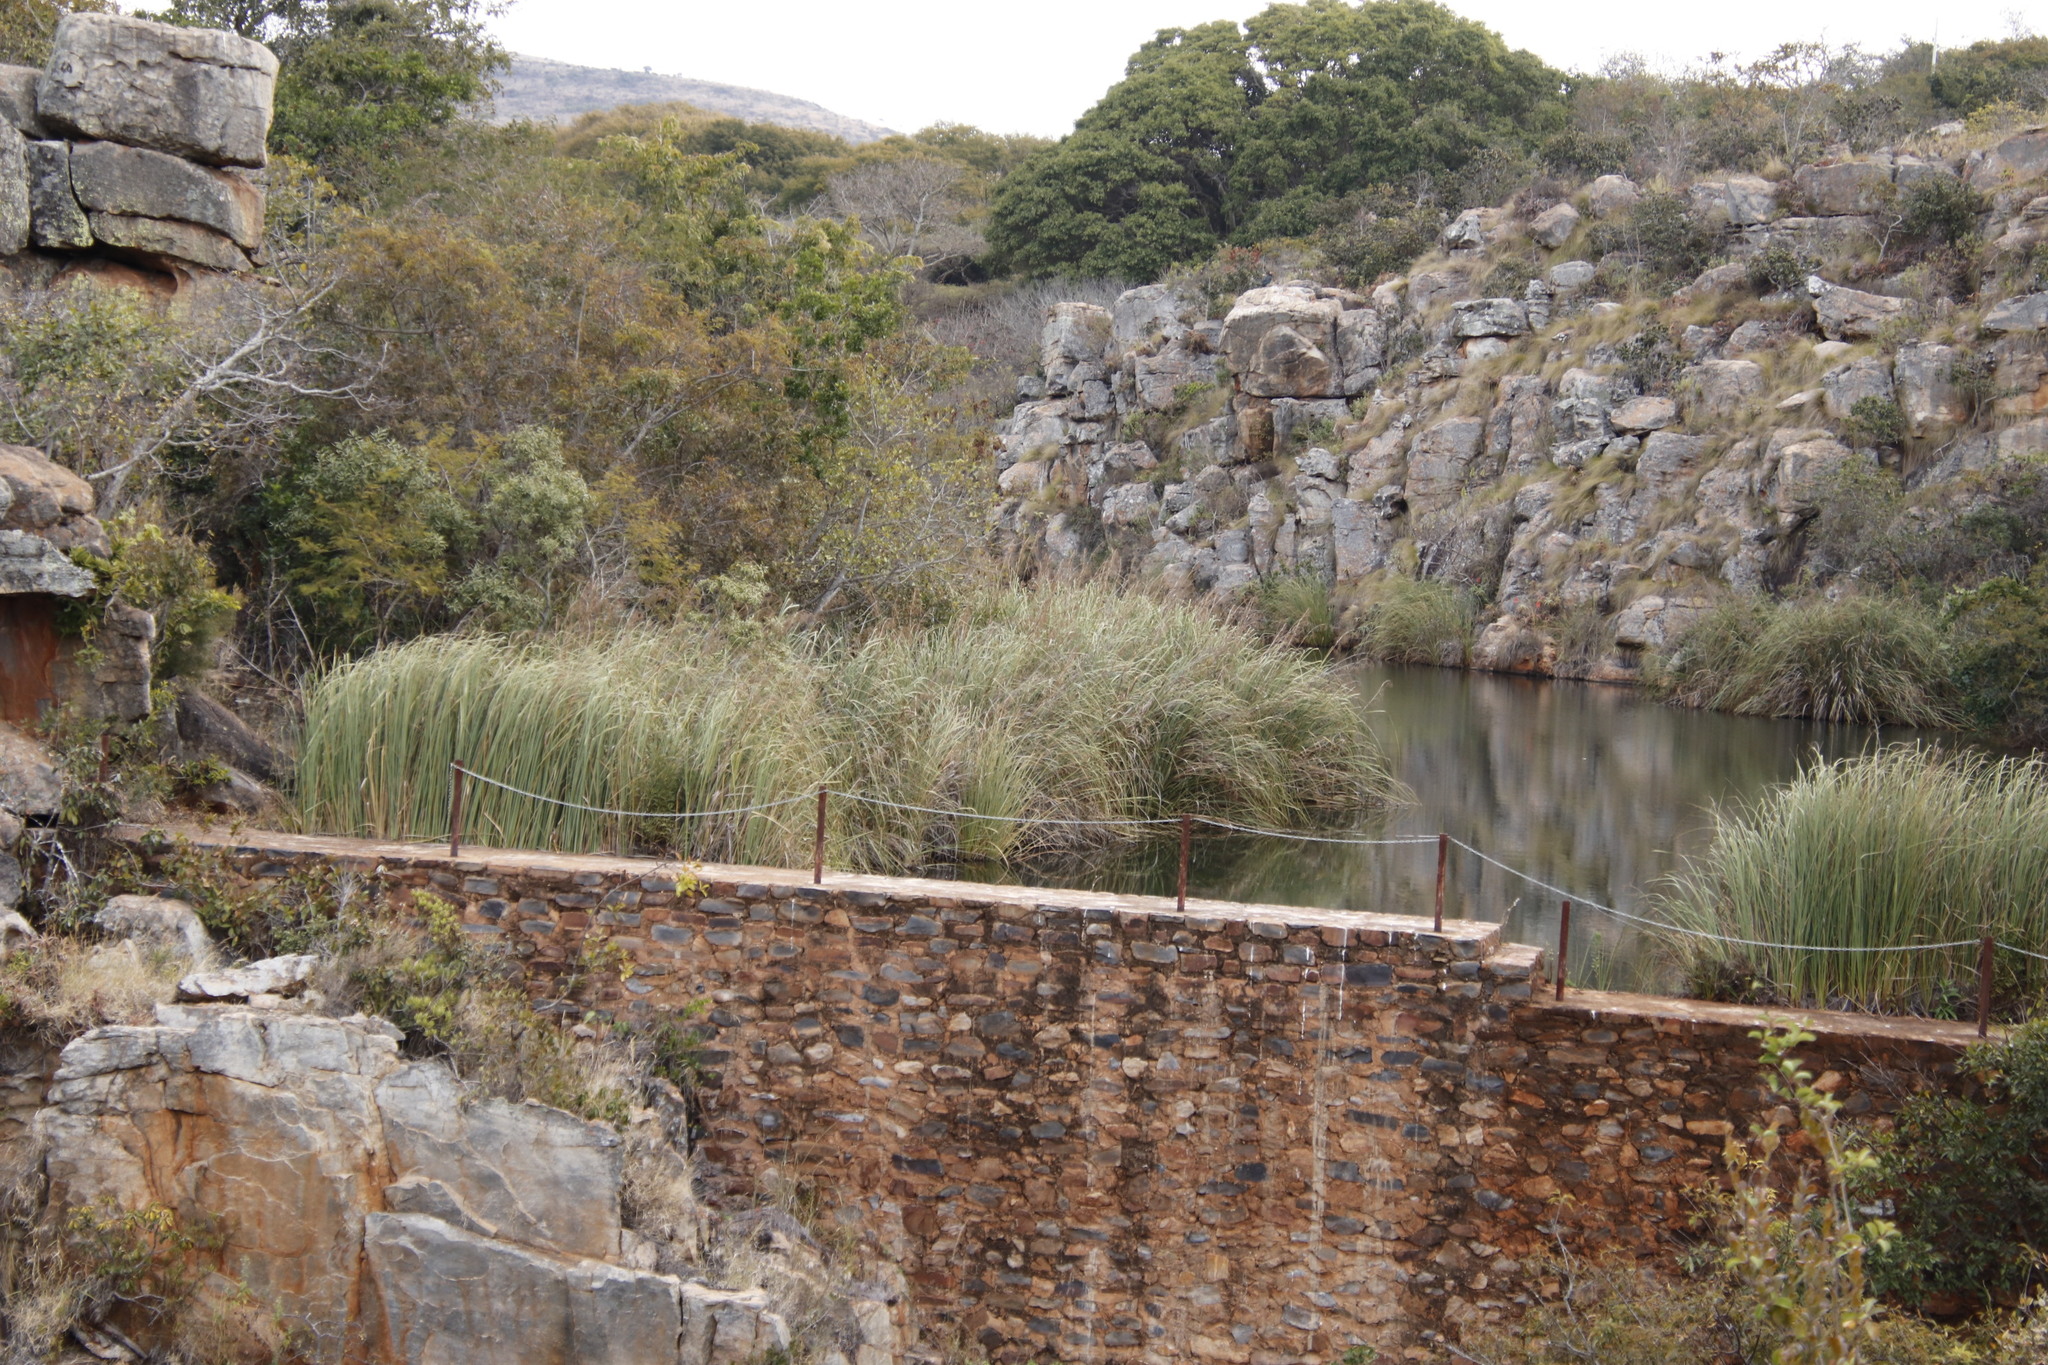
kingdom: Plantae
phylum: Tracheophyta
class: Liliopsida
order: Poales
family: Poaceae
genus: Phragmites
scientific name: Phragmites australis
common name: Common reed
